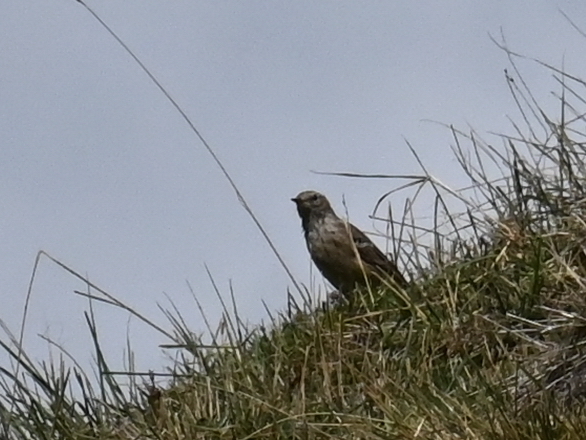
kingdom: Animalia
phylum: Chordata
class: Aves
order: Passeriformes
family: Motacillidae
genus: Anthus
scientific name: Anthus spinoletta
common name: Water pipit
